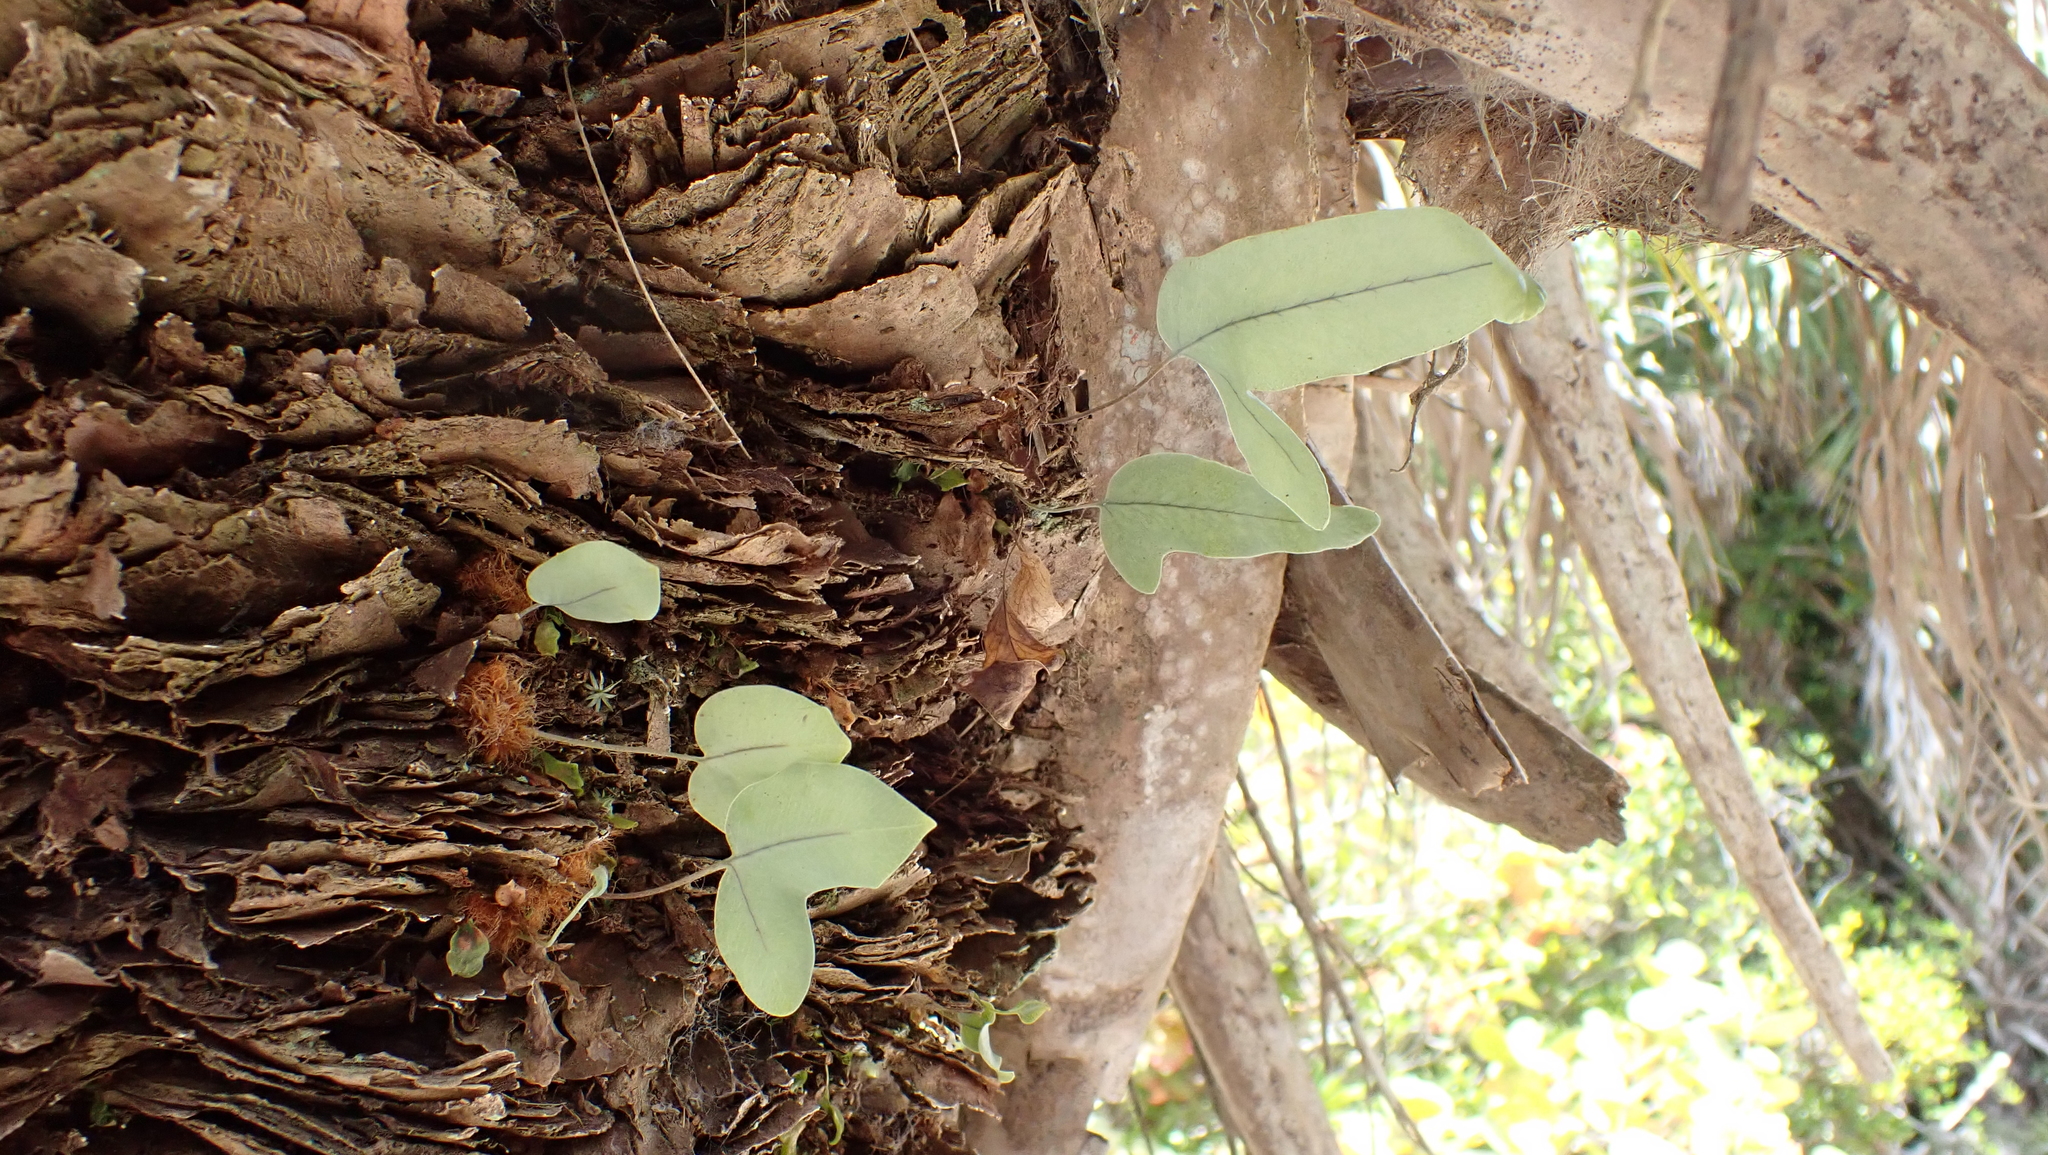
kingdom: Plantae
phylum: Tracheophyta
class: Polypodiopsida
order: Polypodiales
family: Polypodiaceae
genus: Phlebodium
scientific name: Phlebodium aureum
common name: Gold-foot fern
